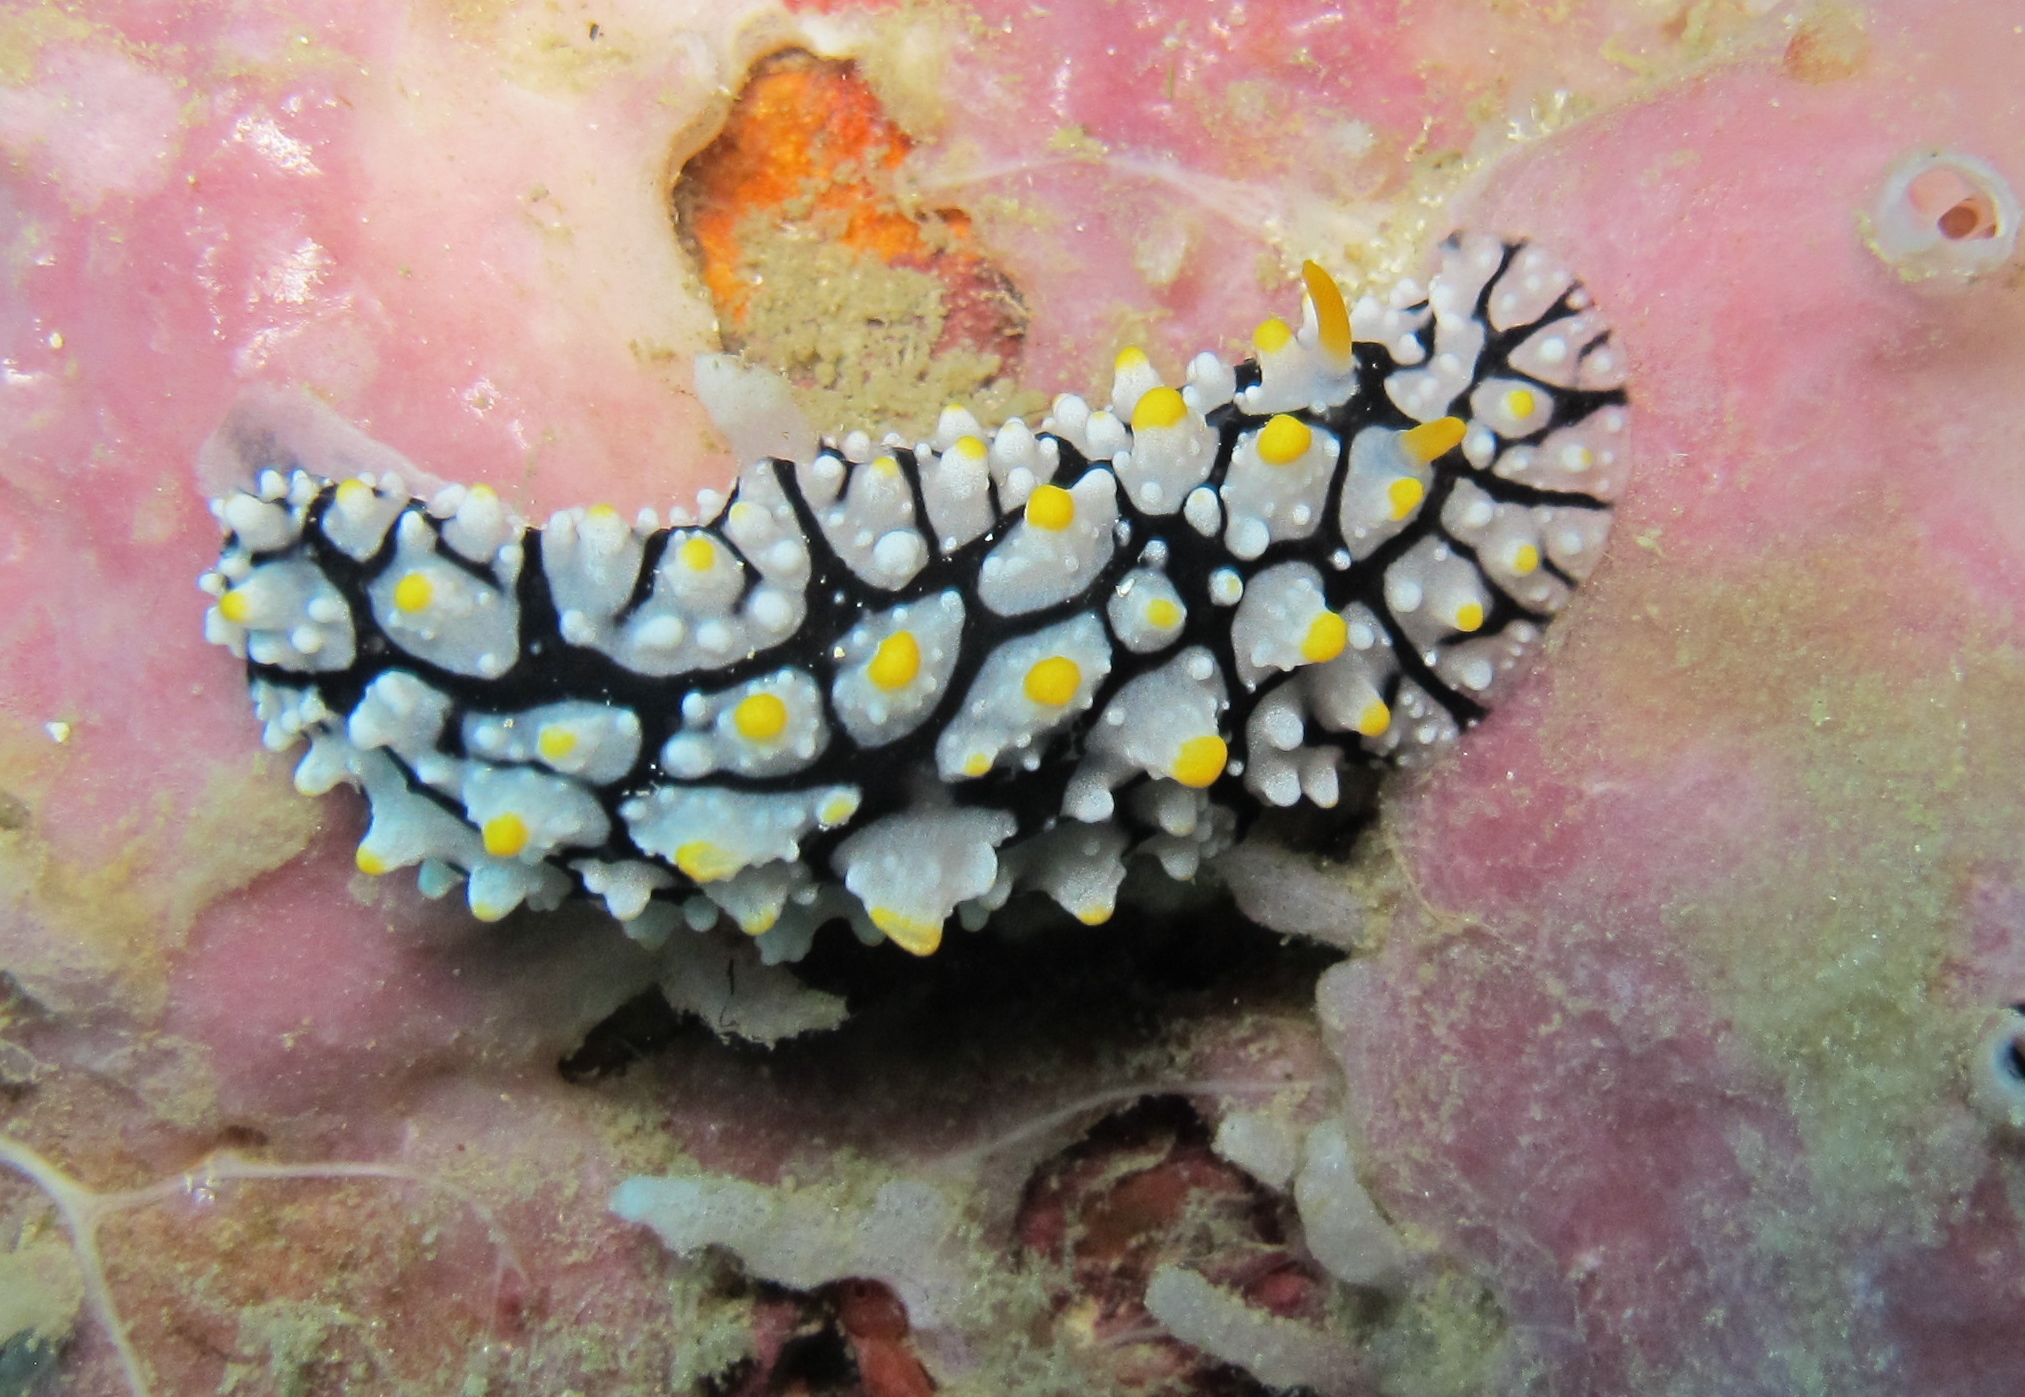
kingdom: Animalia
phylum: Mollusca
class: Gastropoda
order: Nudibranchia
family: Phyllidiidae
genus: Phyllidia
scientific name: Phyllidia elegans
